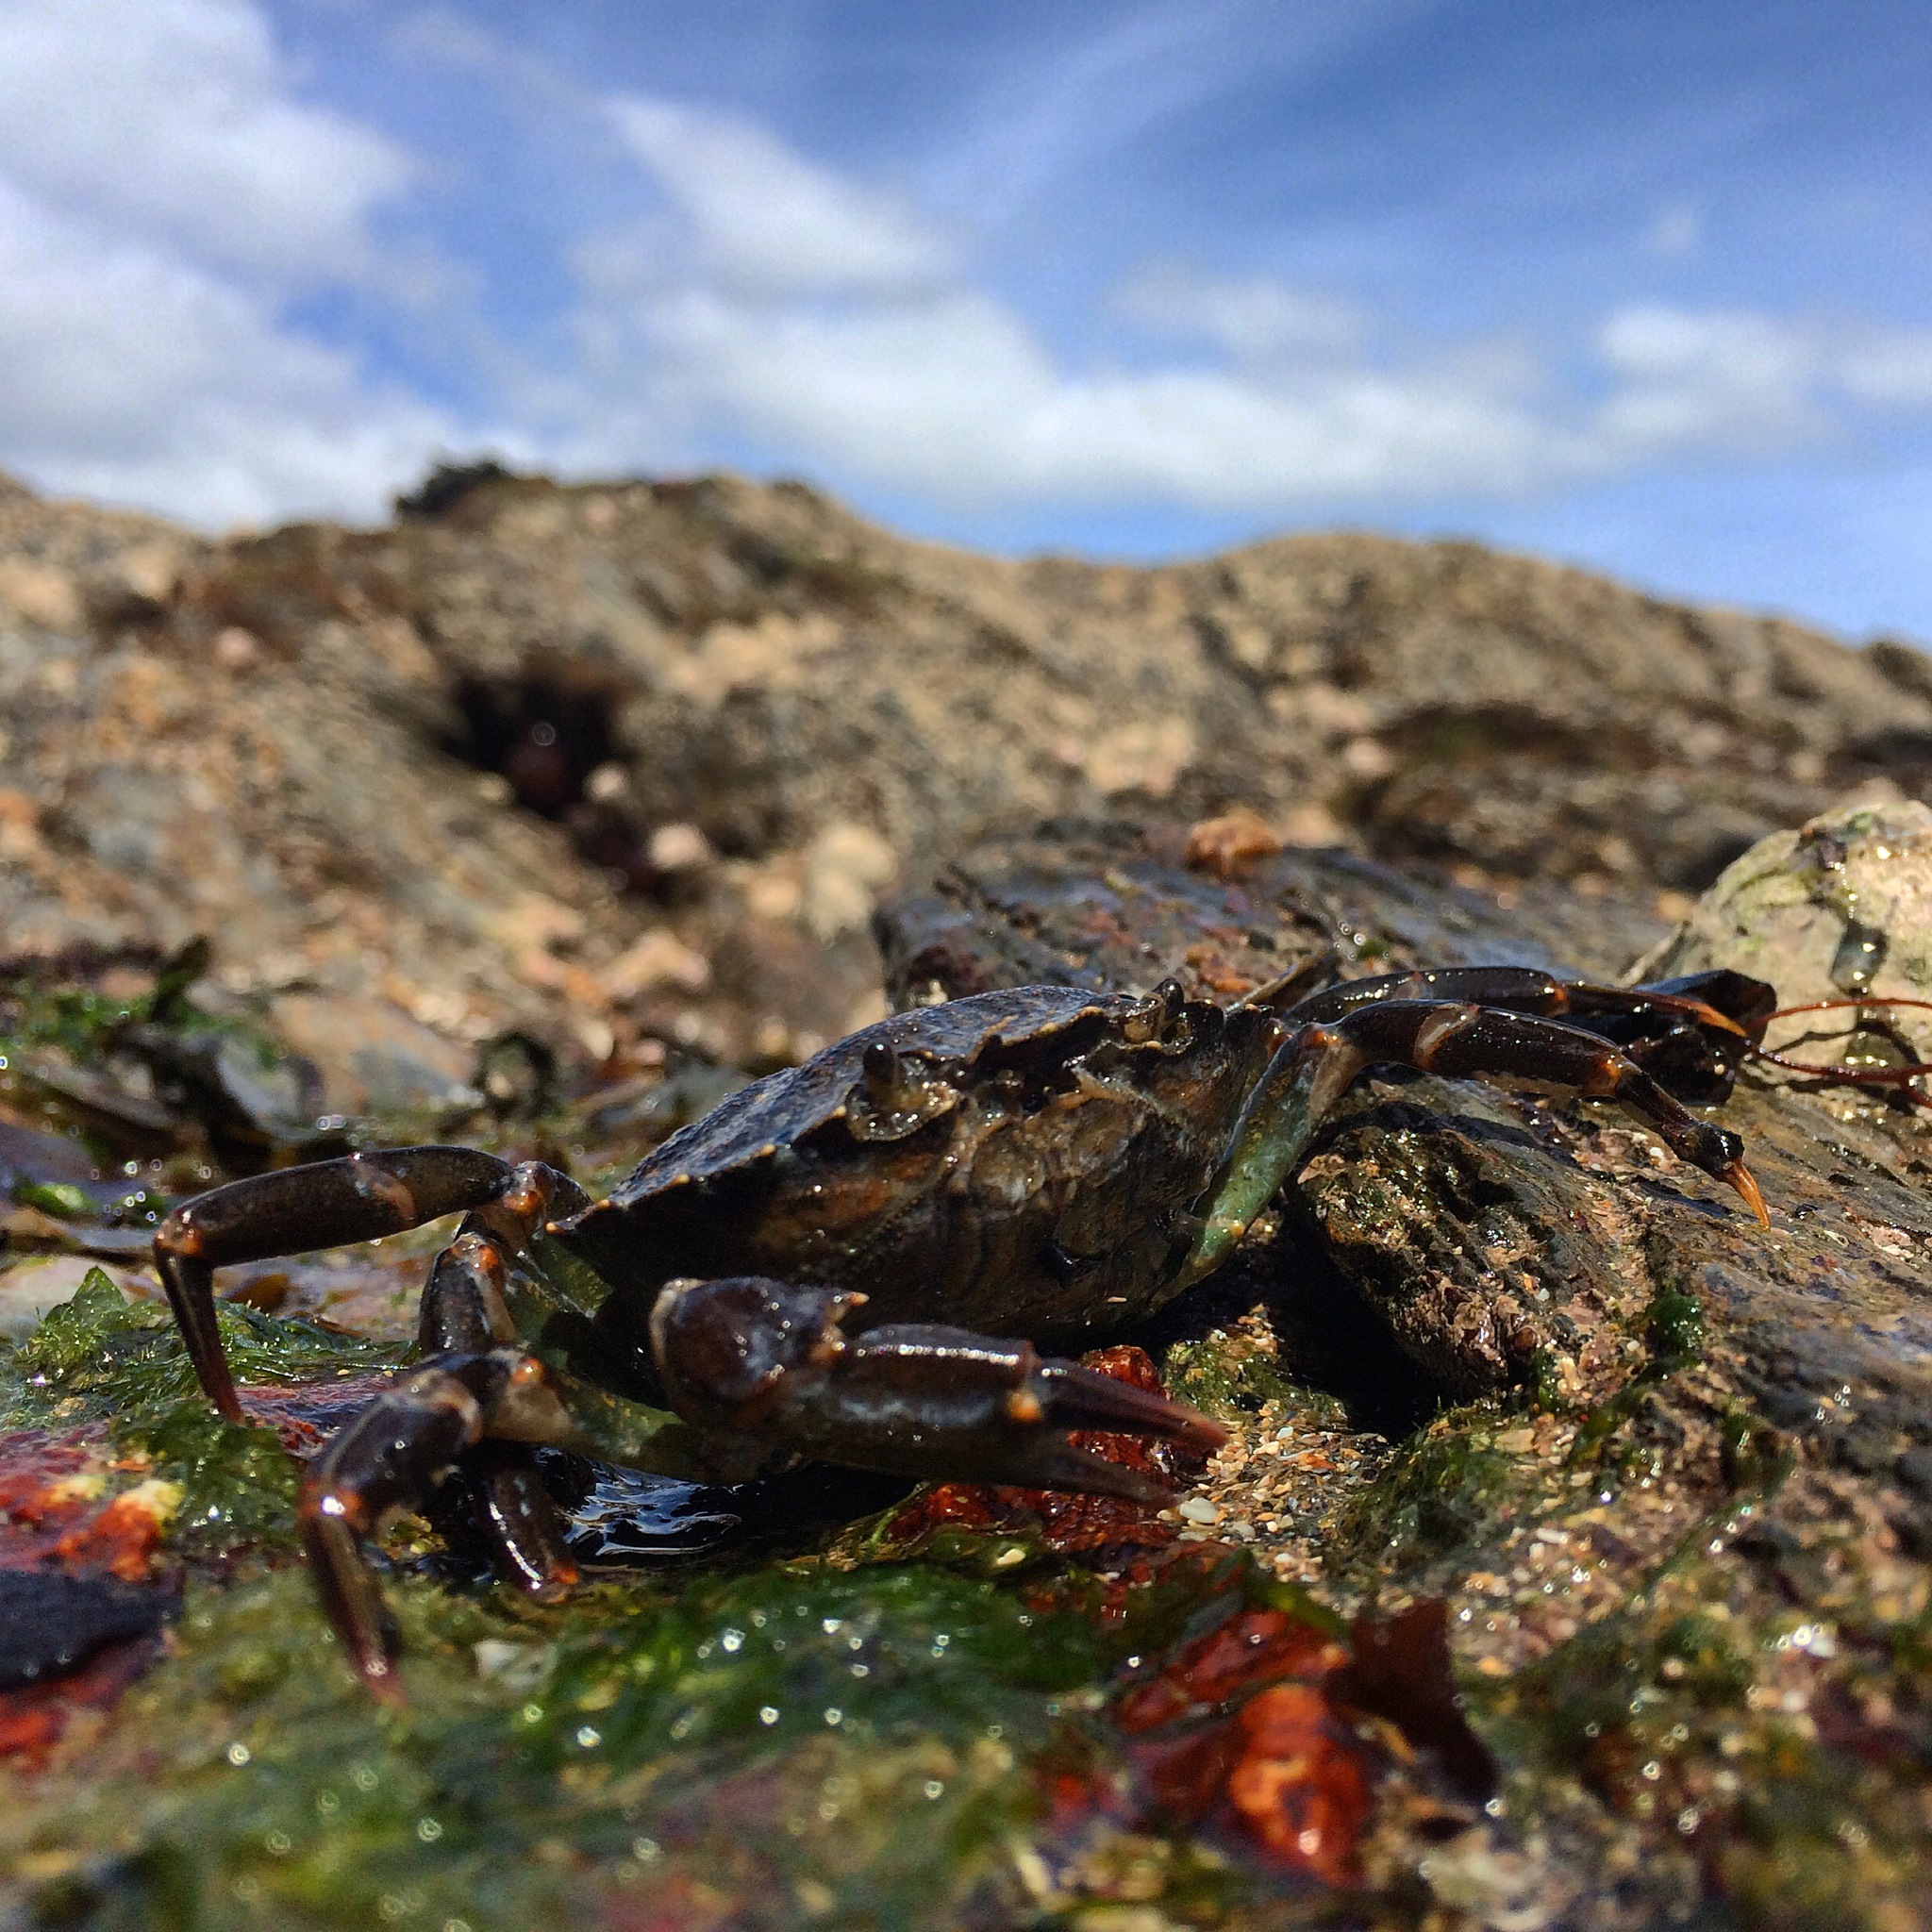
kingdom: Animalia
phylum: Arthropoda
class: Malacostraca
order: Decapoda
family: Carcinidae
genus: Carcinus
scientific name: Carcinus maenas
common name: European green crab
